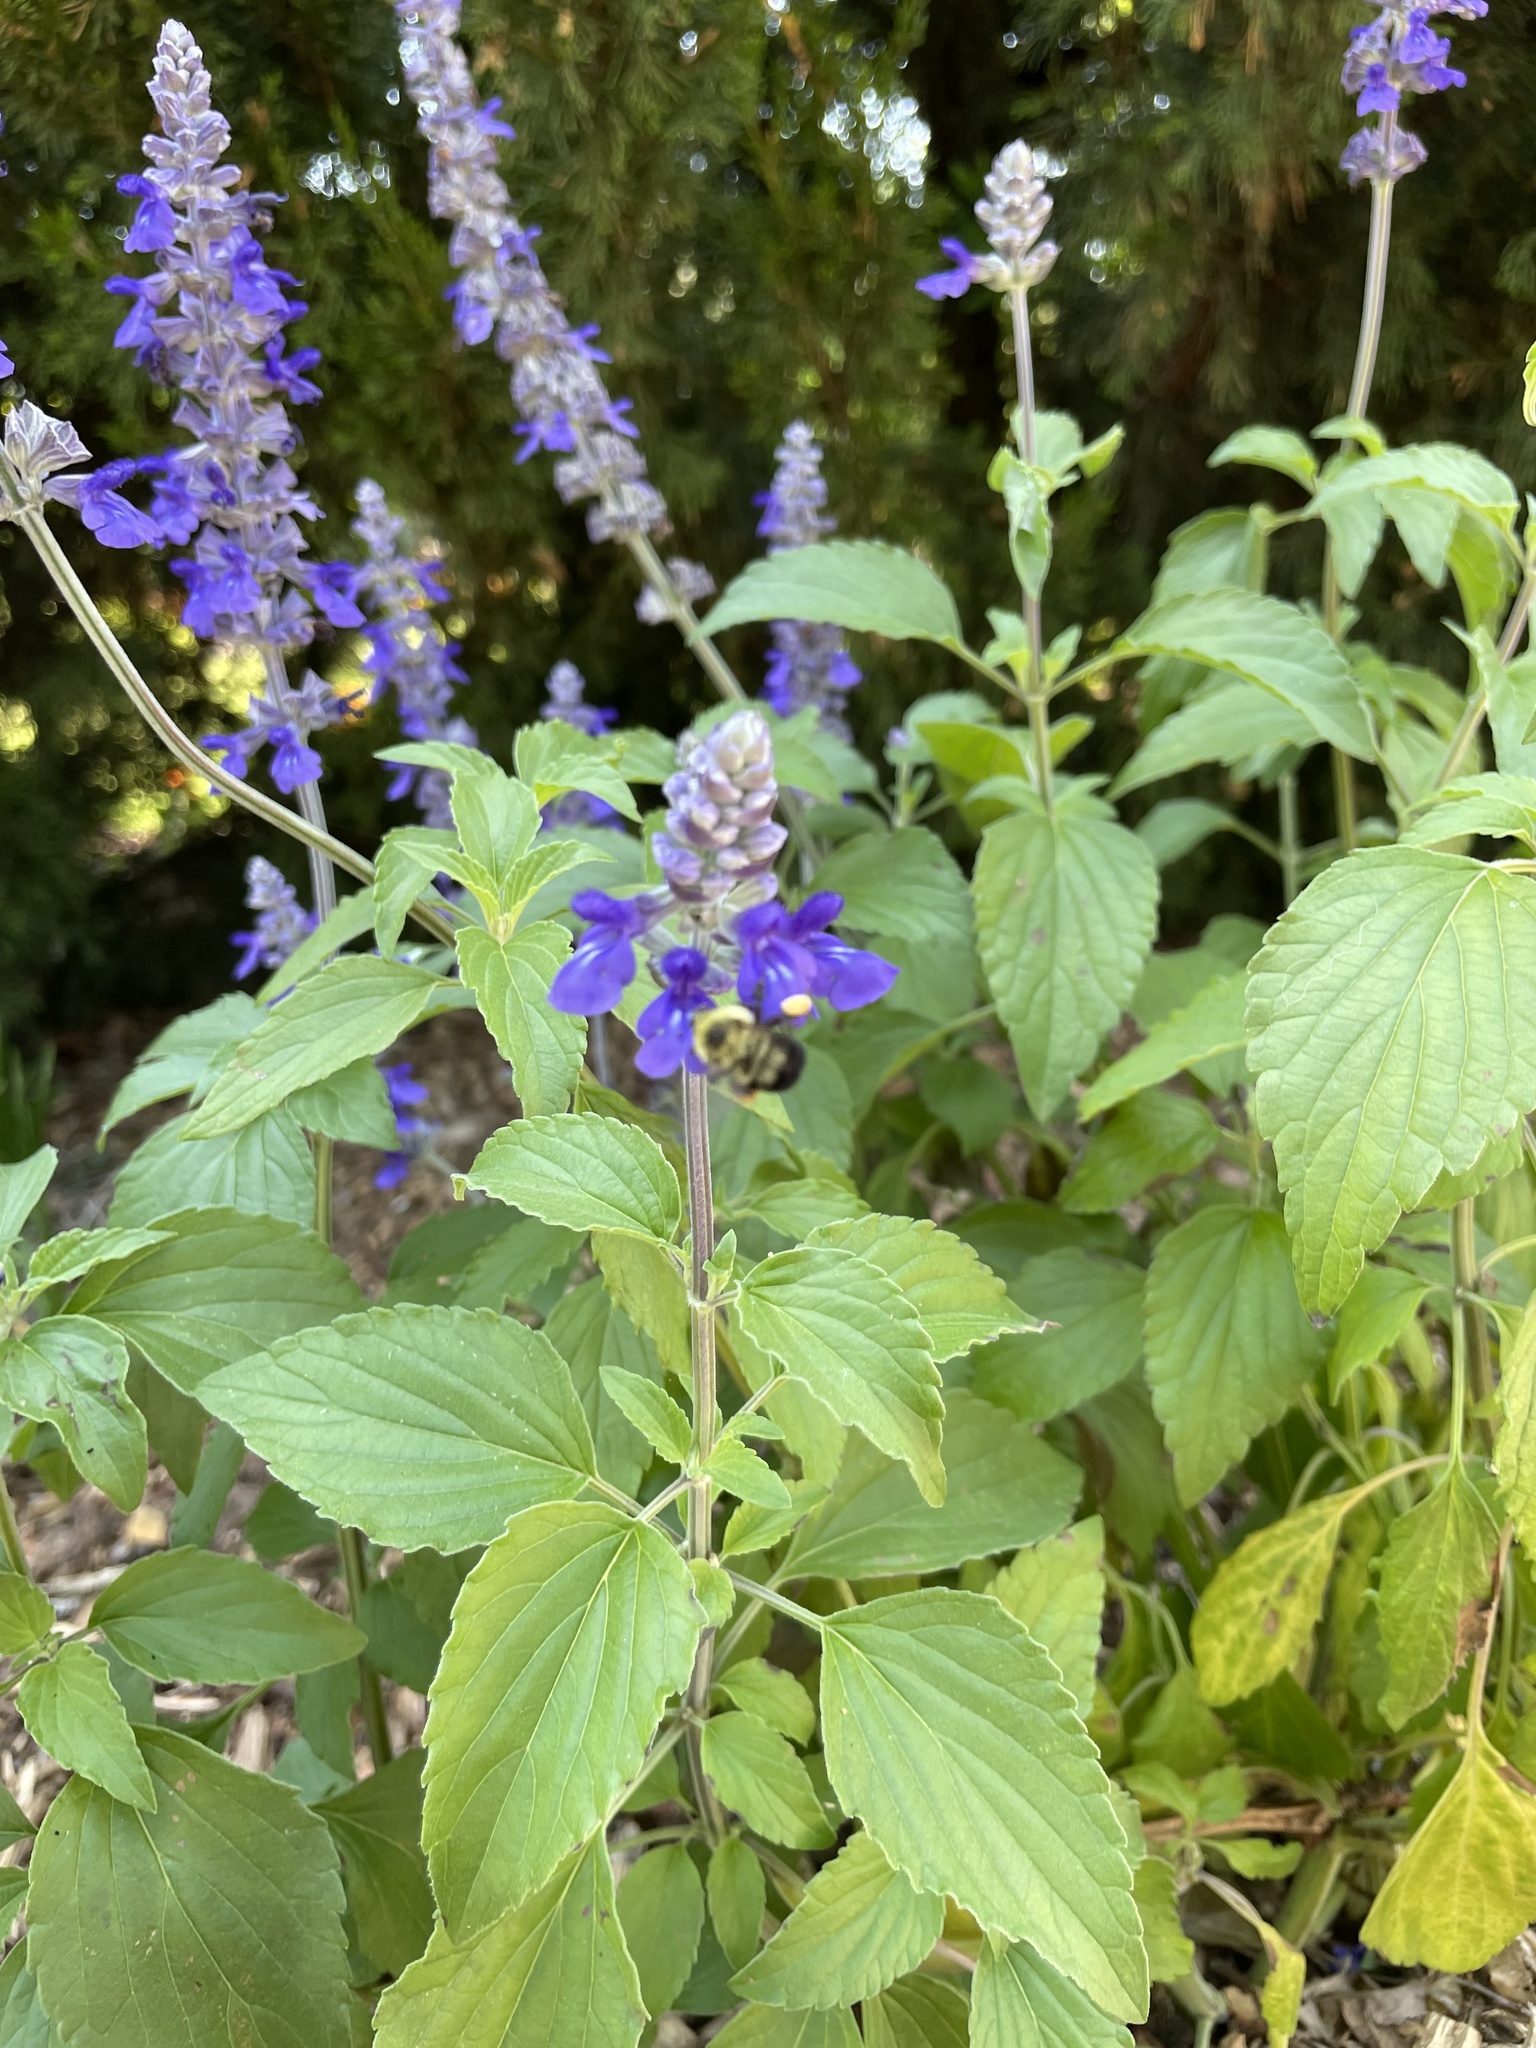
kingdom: Animalia
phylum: Arthropoda
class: Insecta
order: Hymenoptera
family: Apidae
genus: Bombus
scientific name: Bombus bimaculatus
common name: Two-spotted bumble bee
